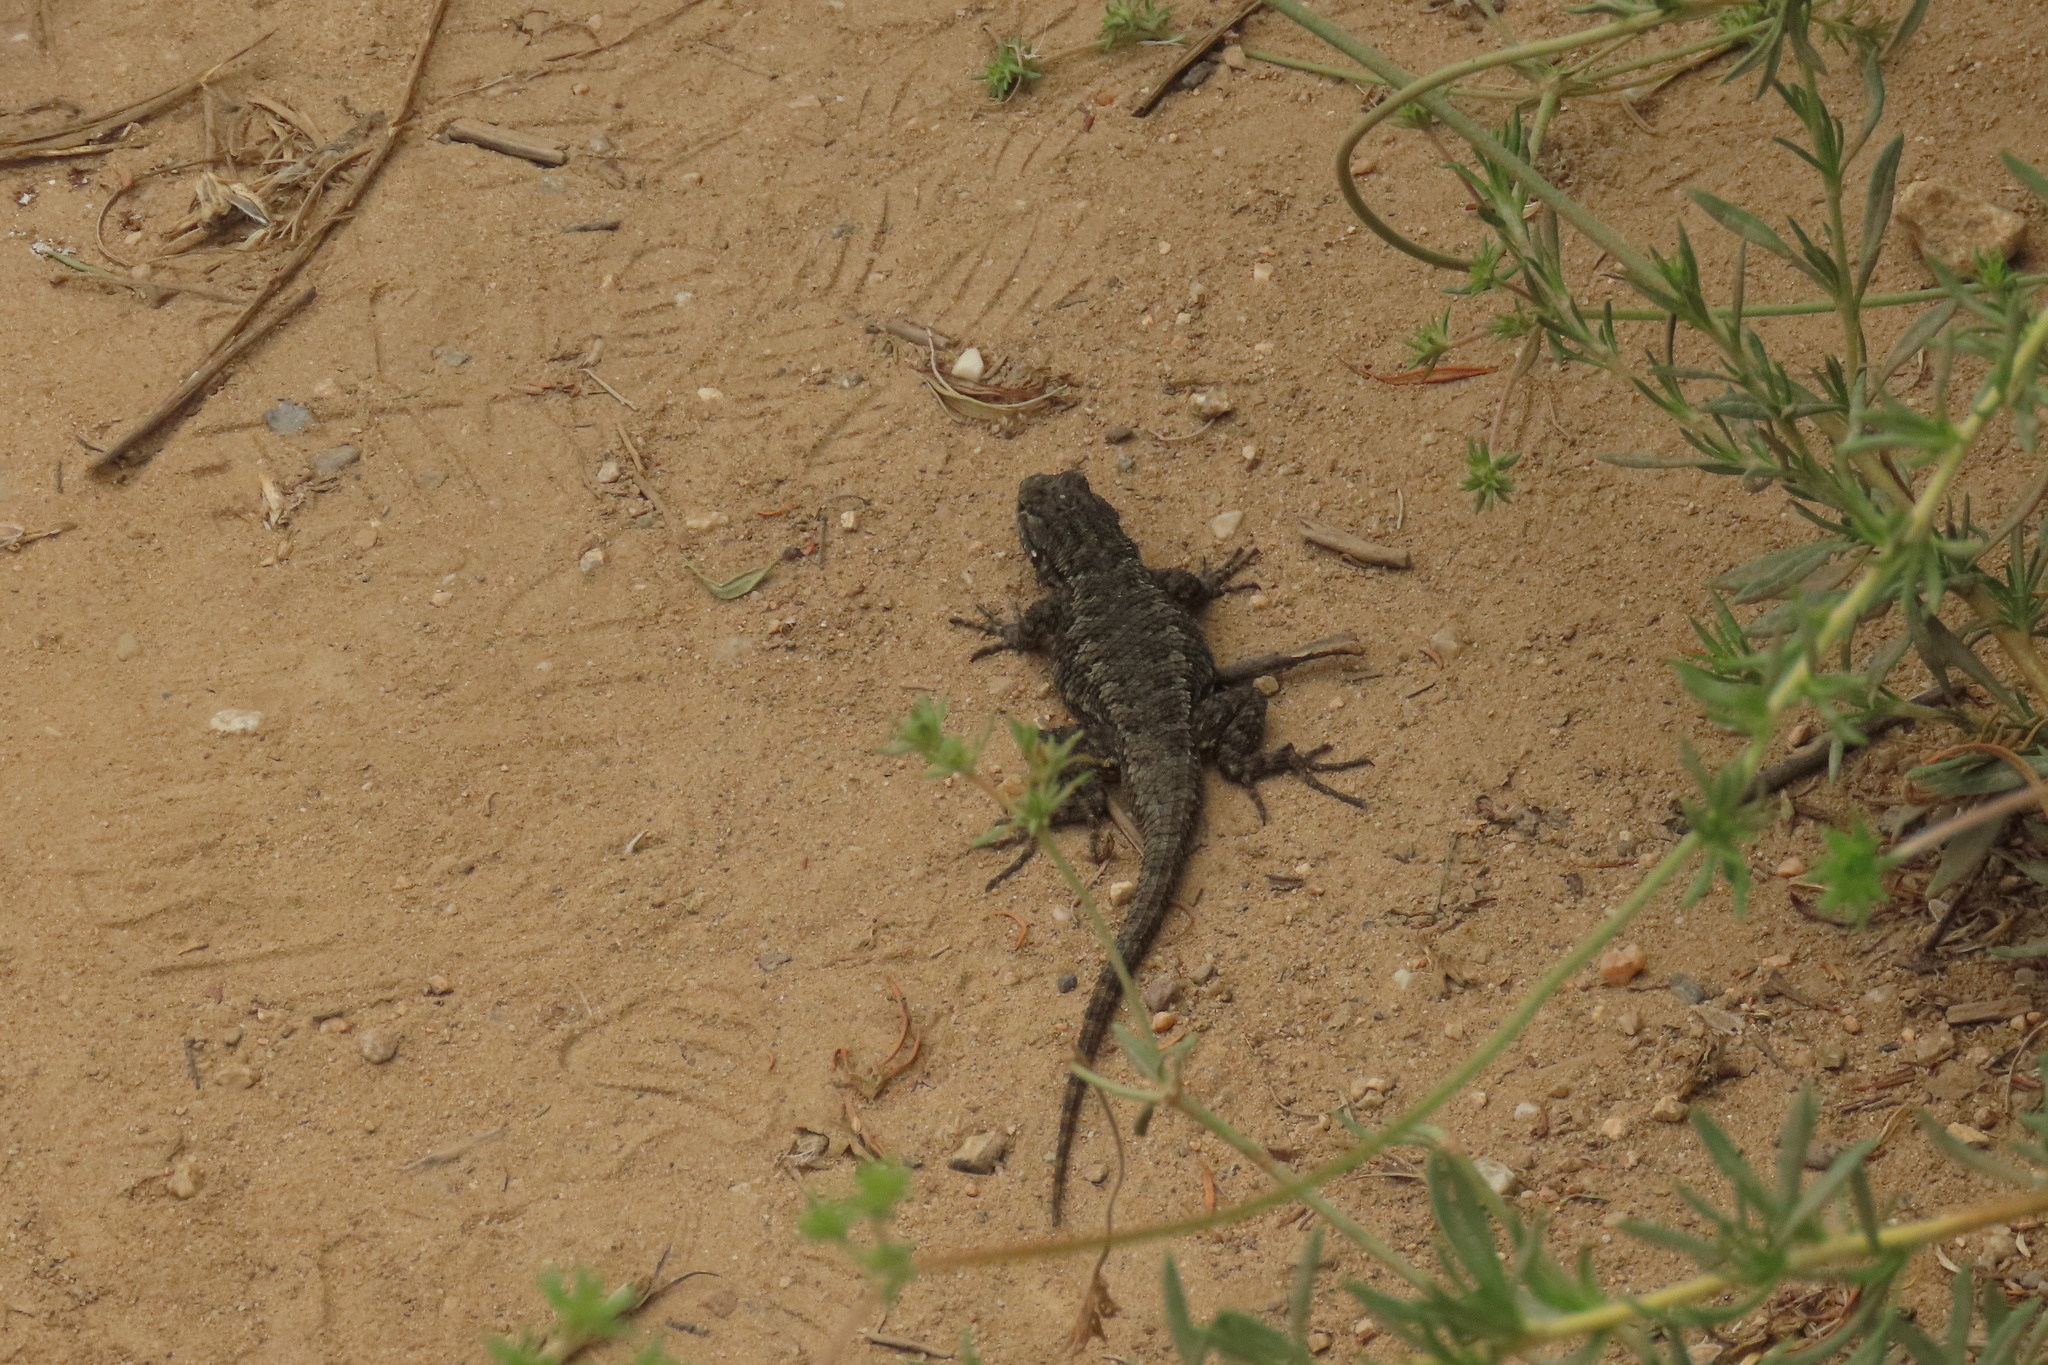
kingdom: Animalia
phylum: Chordata
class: Squamata
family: Phrynosomatidae
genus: Sceloporus
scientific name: Sceloporus occidentalis
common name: Western fence lizard
